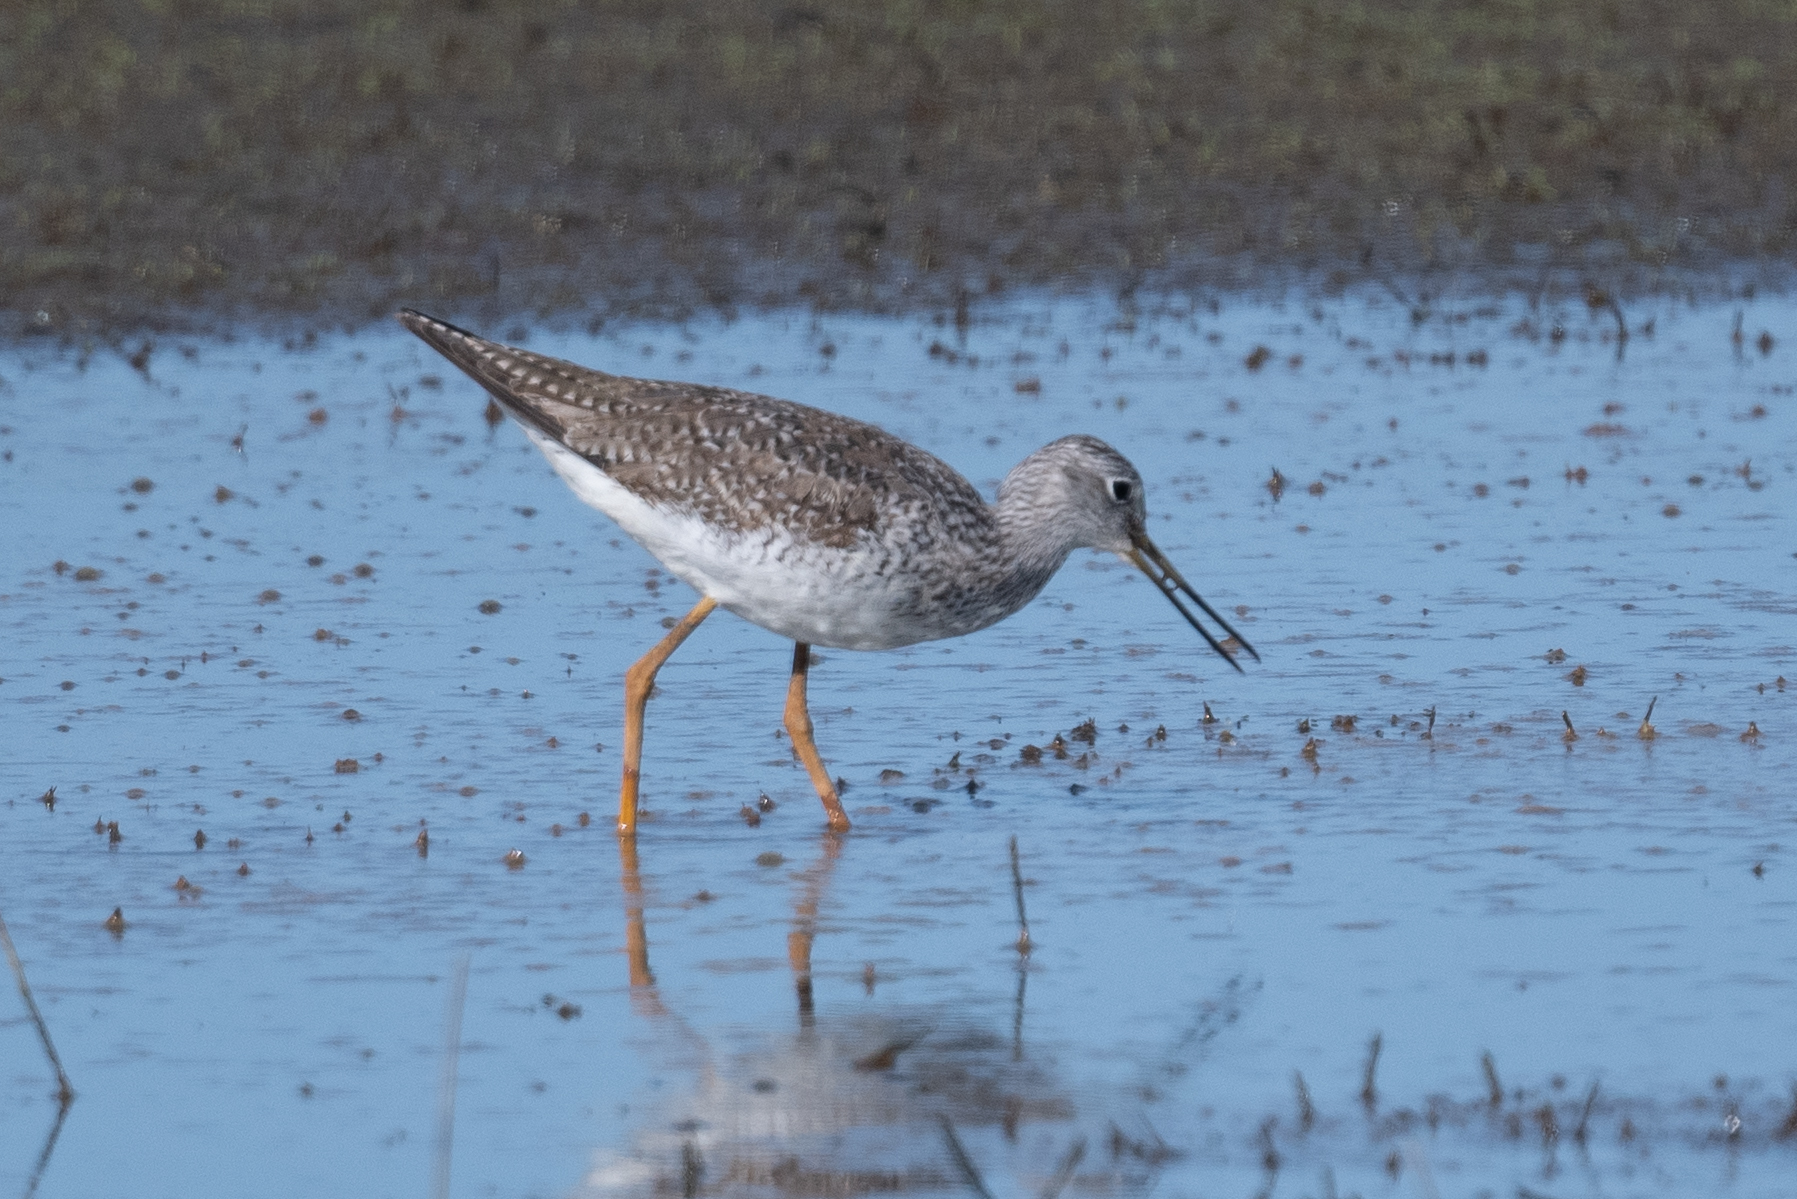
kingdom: Animalia
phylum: Chordata
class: Aves
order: Charadriiformes
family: Scolopacidae
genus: Tringa
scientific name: Tringa melanoleuca
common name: Greater yellowlegs
